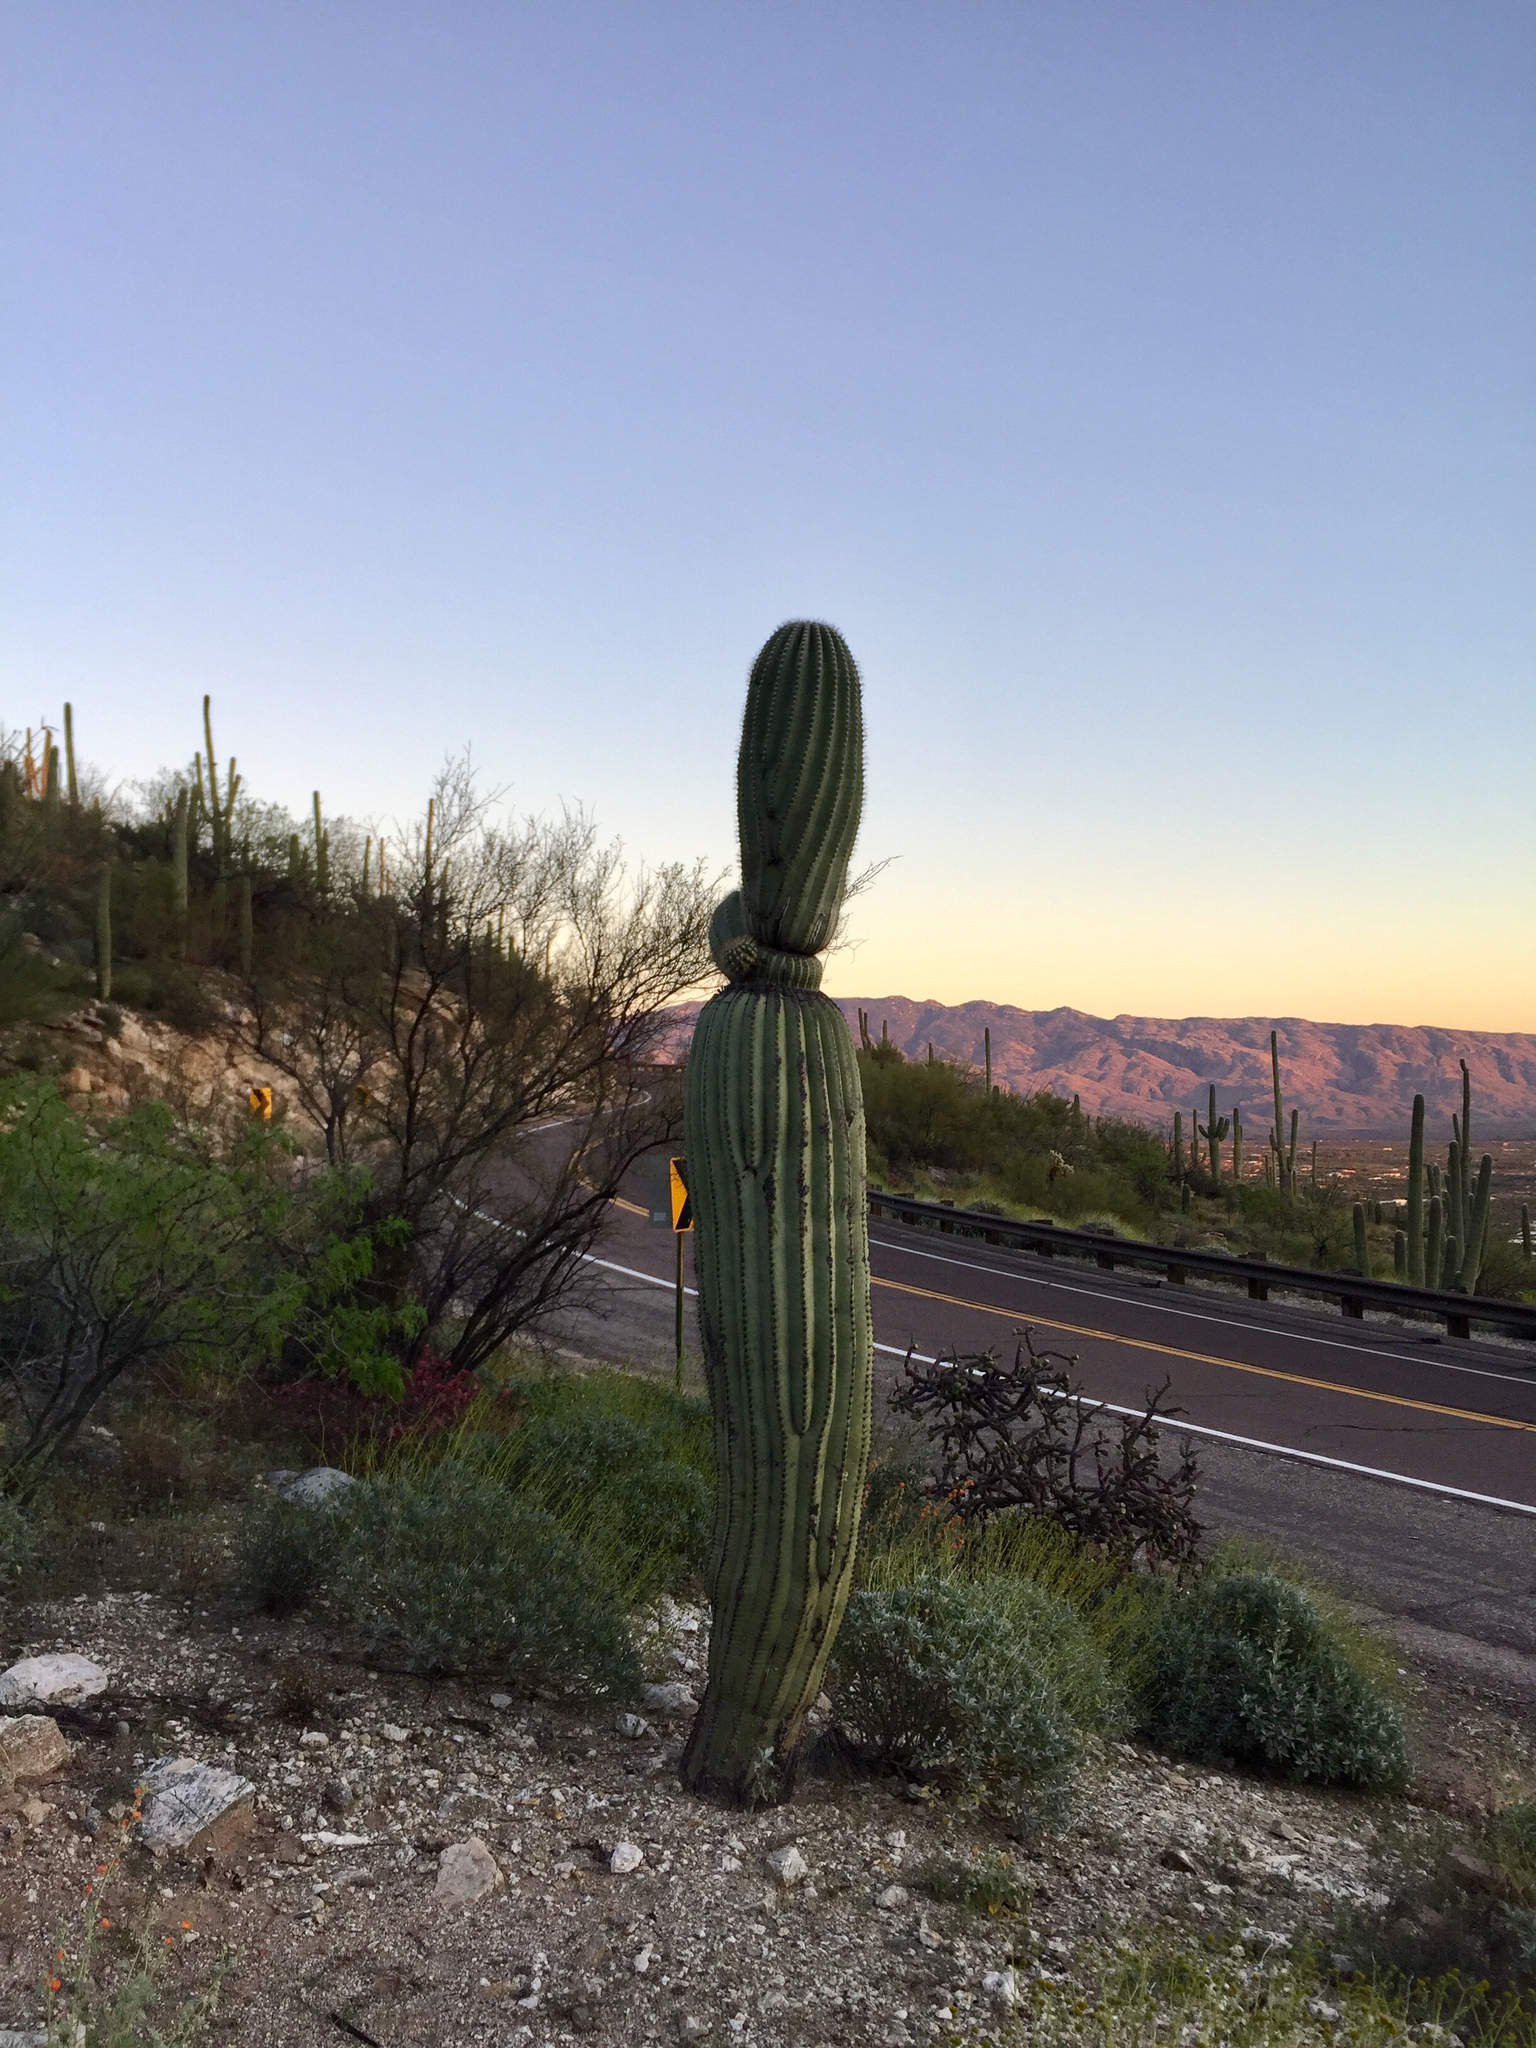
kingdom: Plantae
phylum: Tracheophyta
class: Magnoliopsida
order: Caryophyllales
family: Cactaceae
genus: Carnegiea
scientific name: Carnegiea gigantea
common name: Saguaro
